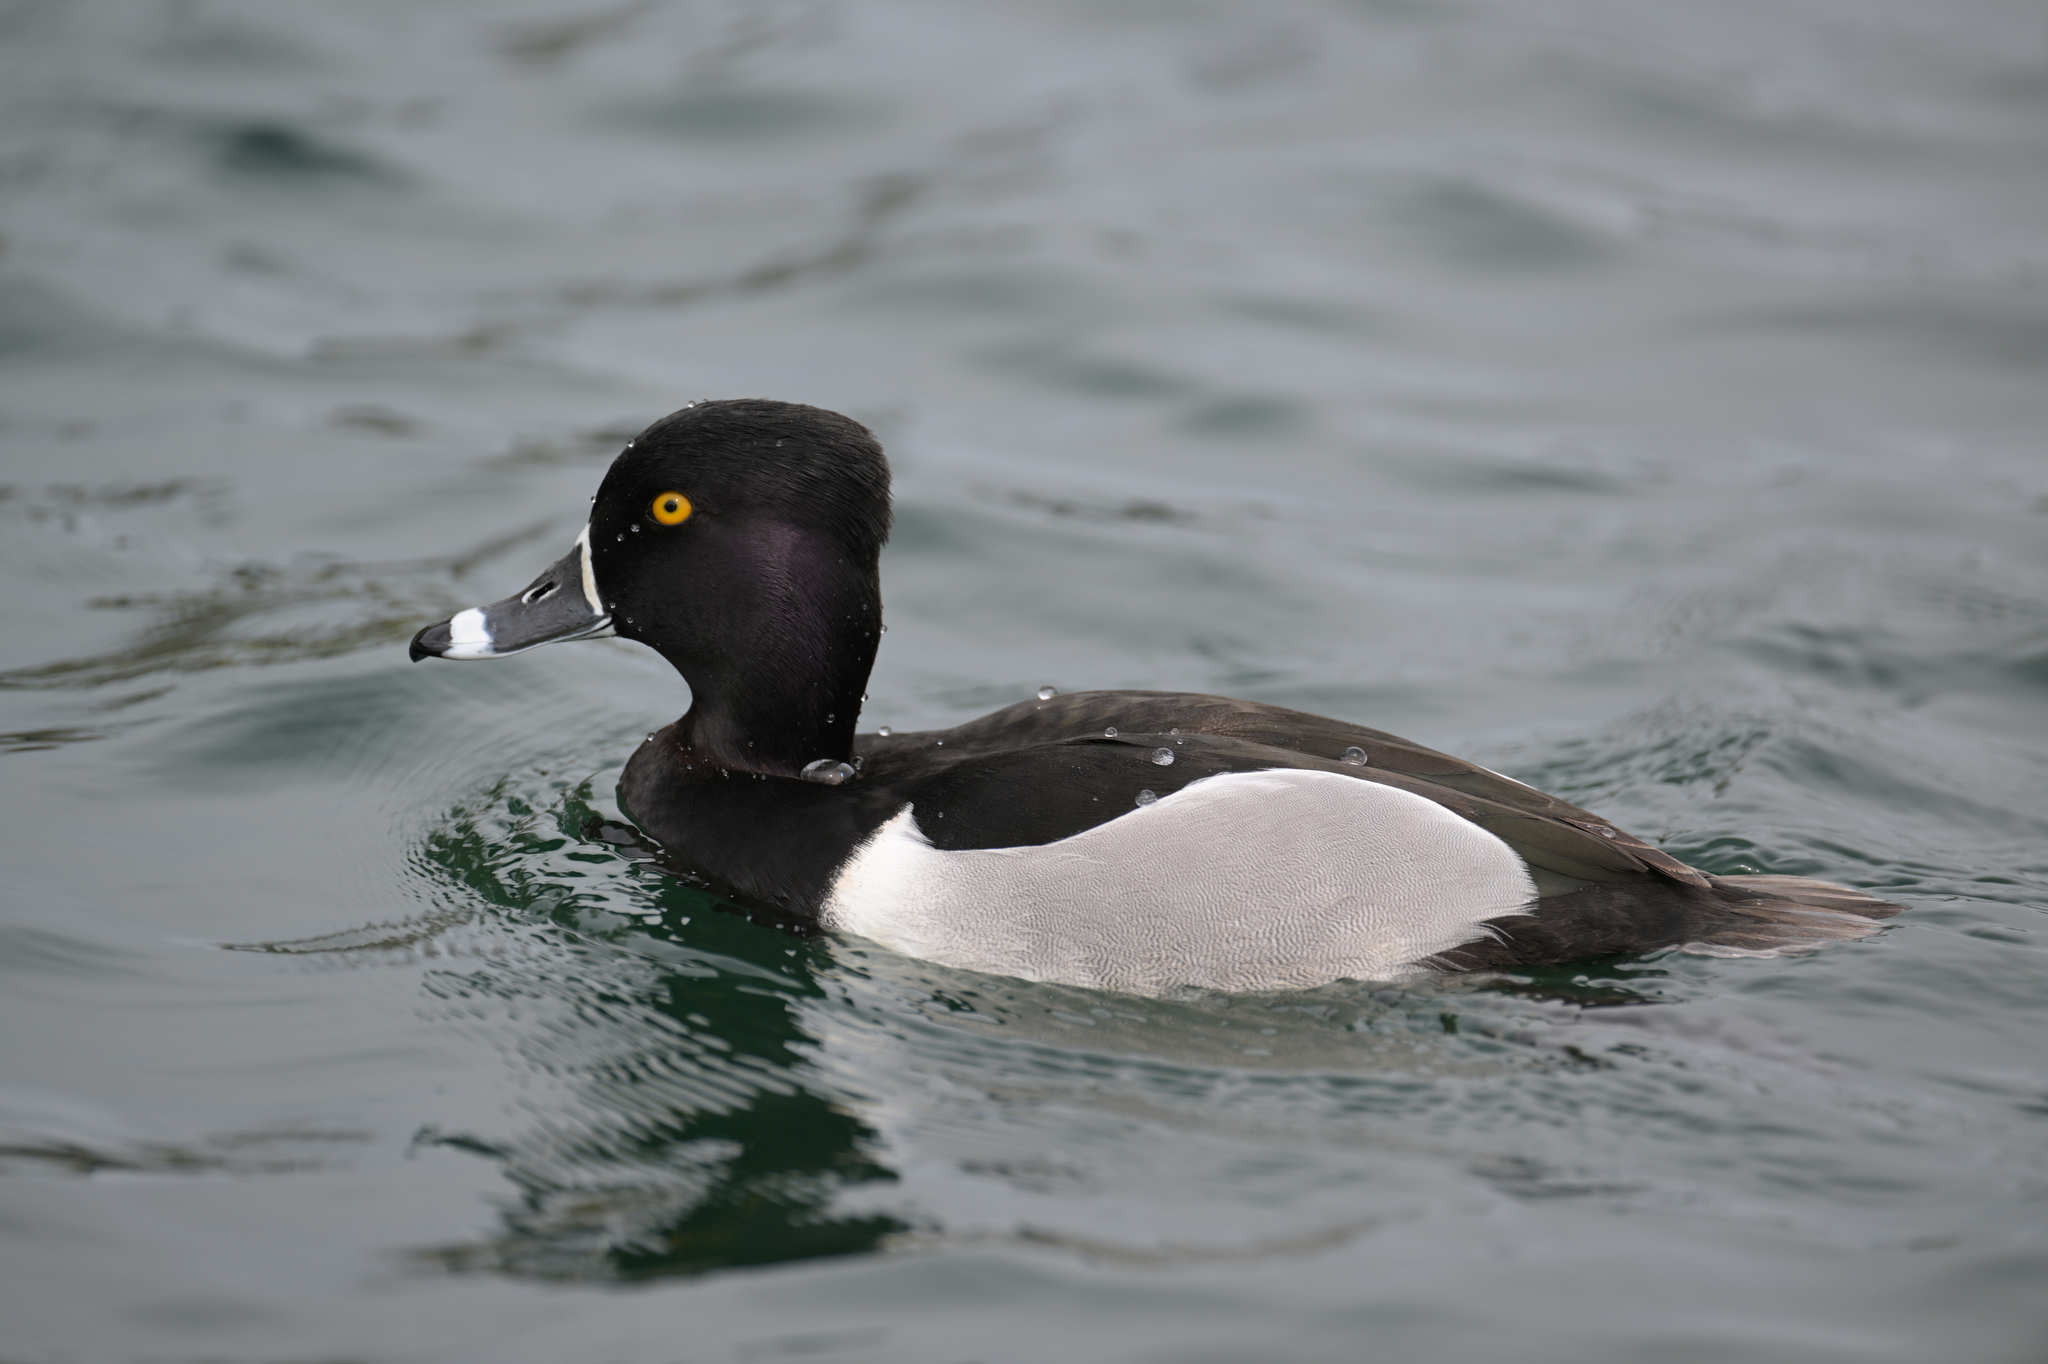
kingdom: Animalia
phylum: Chordata
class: Aves
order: Anseriformes
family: Anatidae
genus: Aythya
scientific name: Aythya collaris
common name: Ring-necked duck
